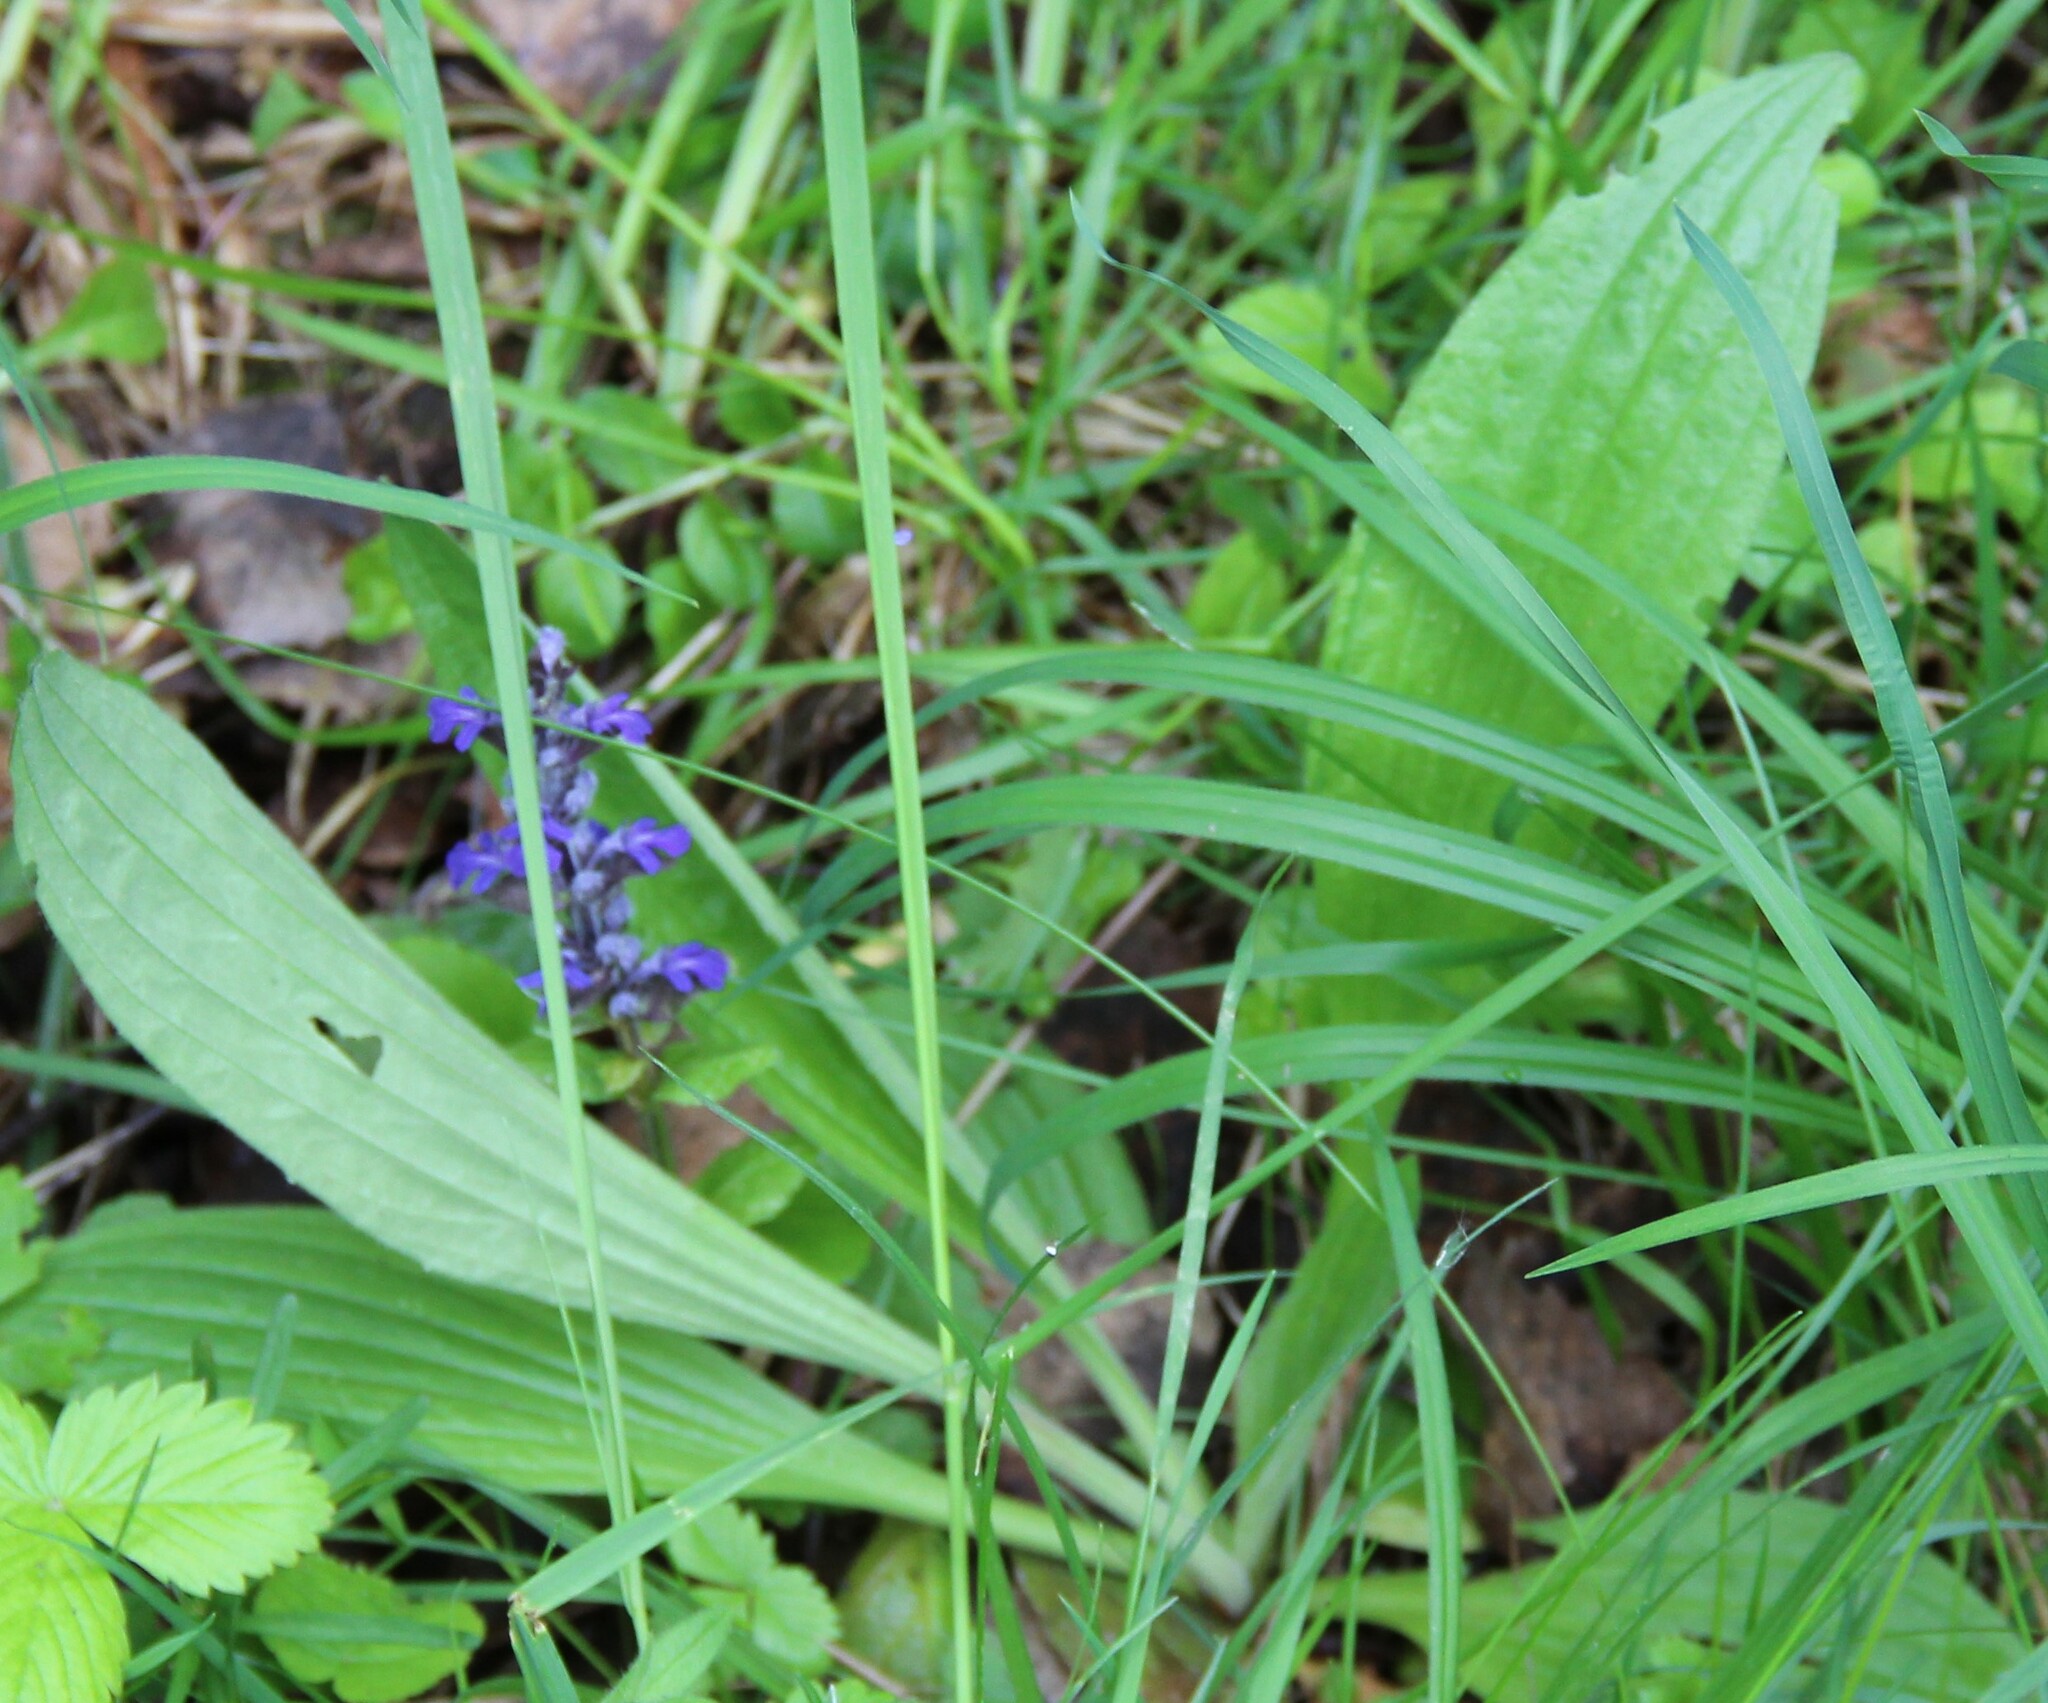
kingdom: Plantae
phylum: Tracheophyta
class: Magnoliopsida
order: Lamiales
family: Plantaginaceae
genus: Plantago
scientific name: Plantago lanceolata
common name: Ribwort plantain
